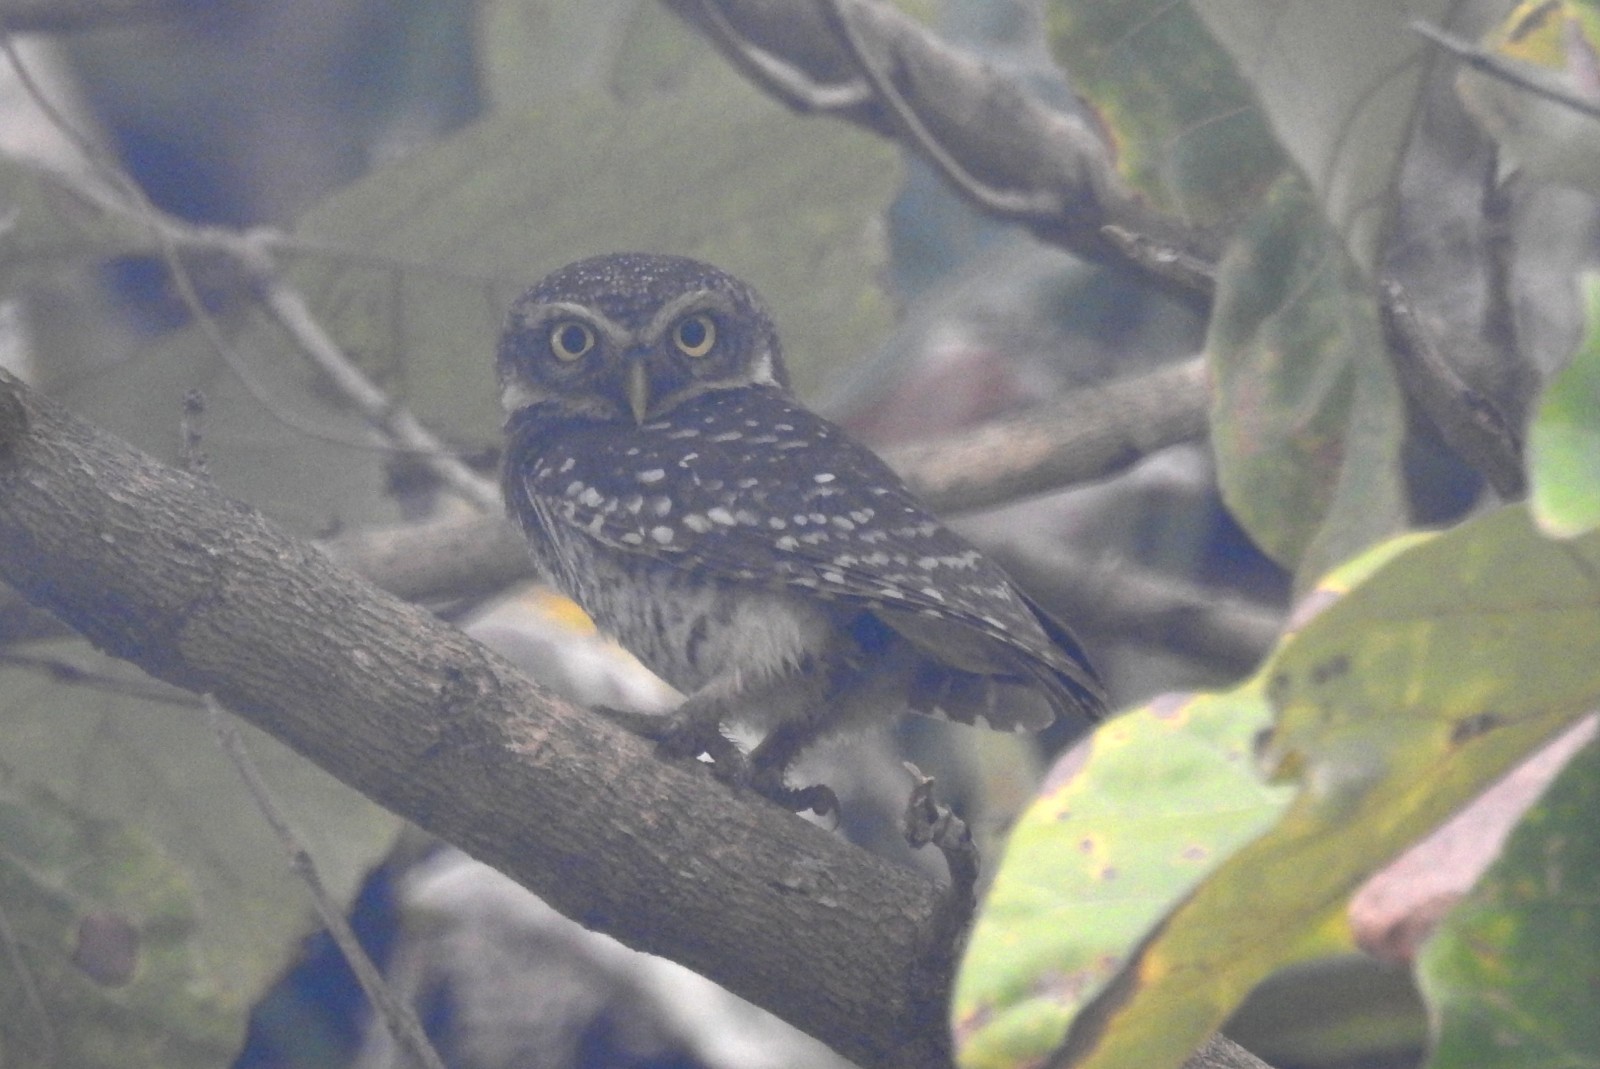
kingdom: Animalia
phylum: Chordata
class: Aves
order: Strigiformes
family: Strigidae
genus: Athene
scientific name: Athene brama
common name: Spotted owlet
